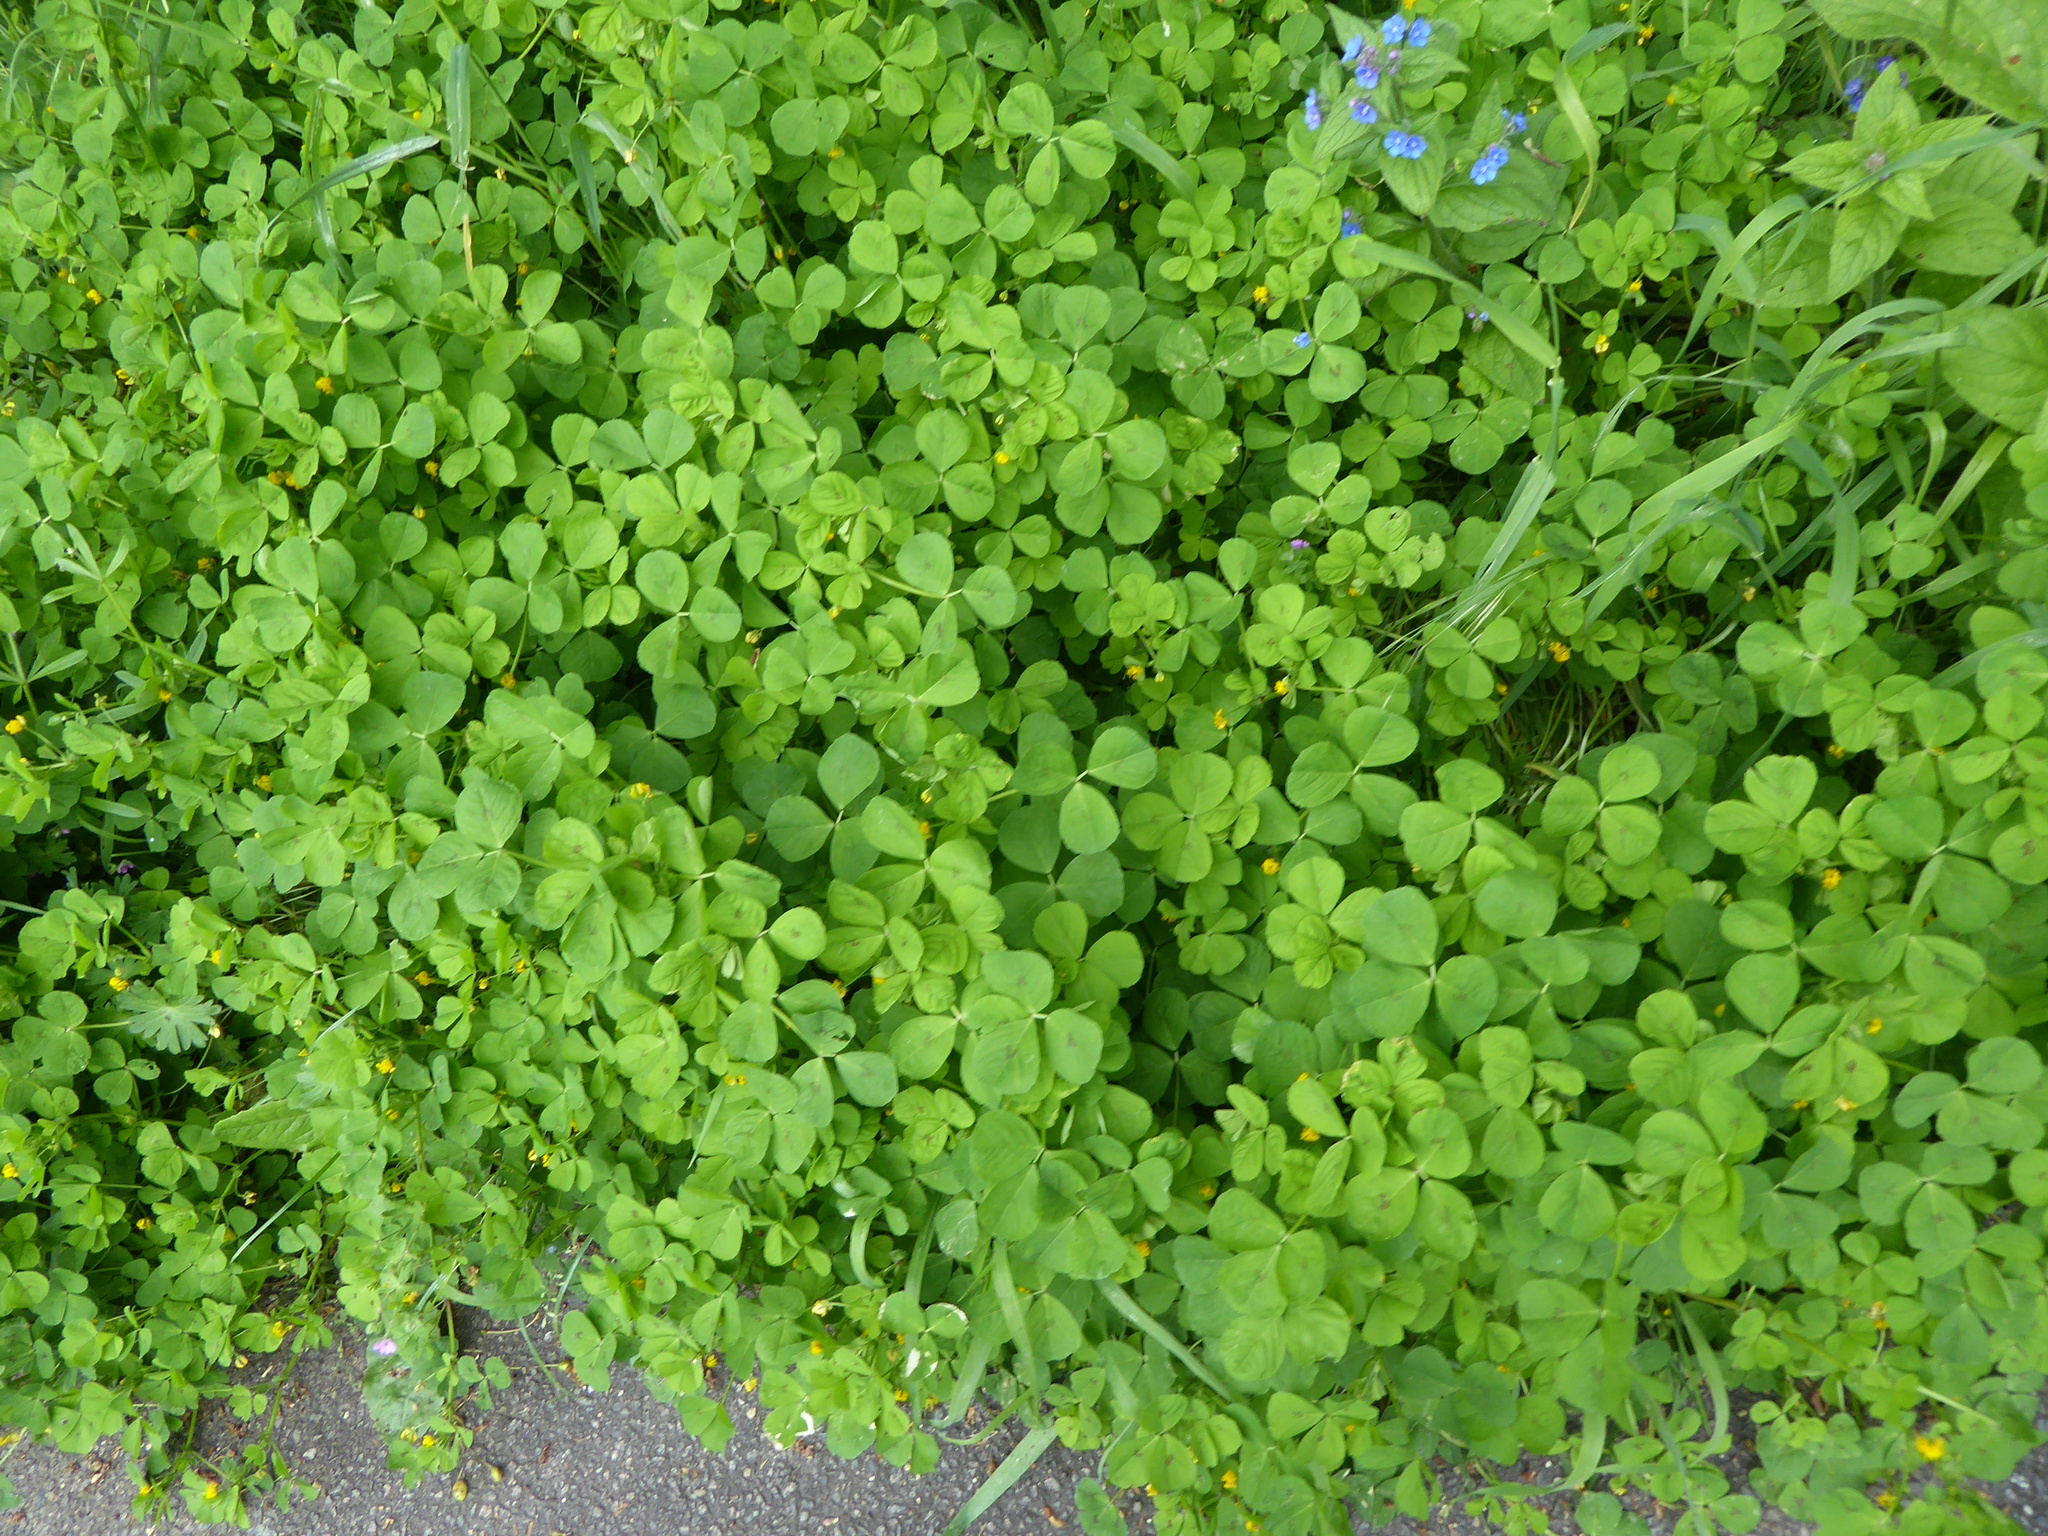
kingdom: Plantae
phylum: Tracheophyta
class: Magnoliopsida
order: Fabales
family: Fabaceae
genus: Medicago
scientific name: Medicago arabica
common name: Spotted medick
